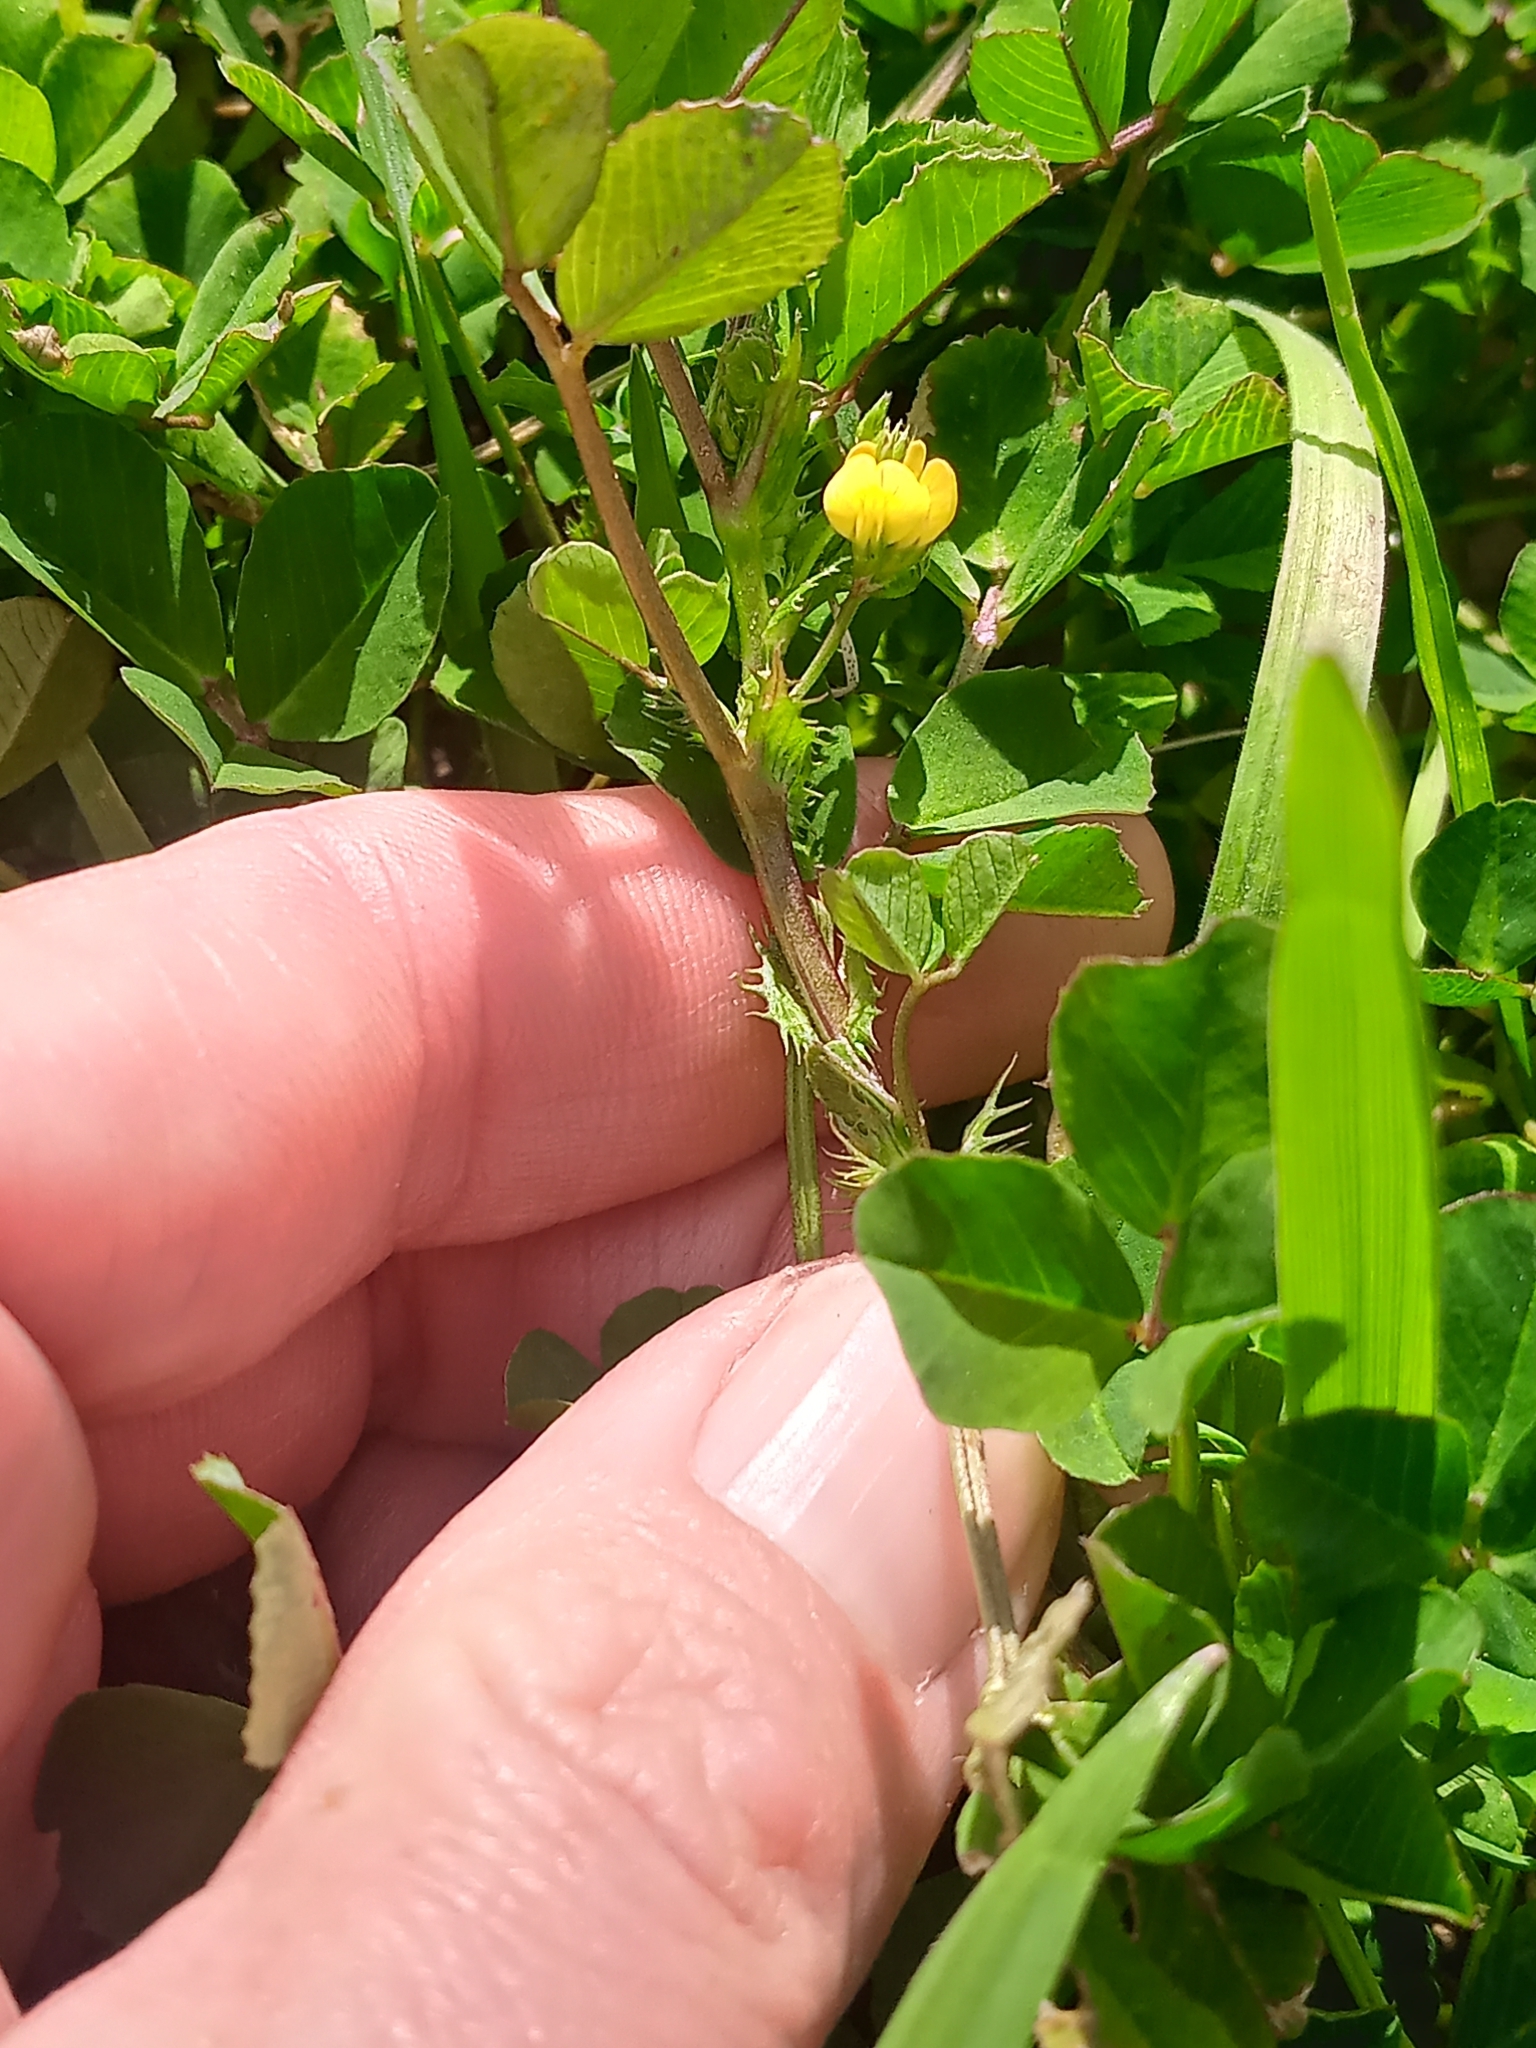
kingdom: Plantae
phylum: Tracheophyta
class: Magnoliopsida
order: Fabales
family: Fabaceae
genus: Medicago
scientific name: Medicago polymorpha
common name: Burclover
